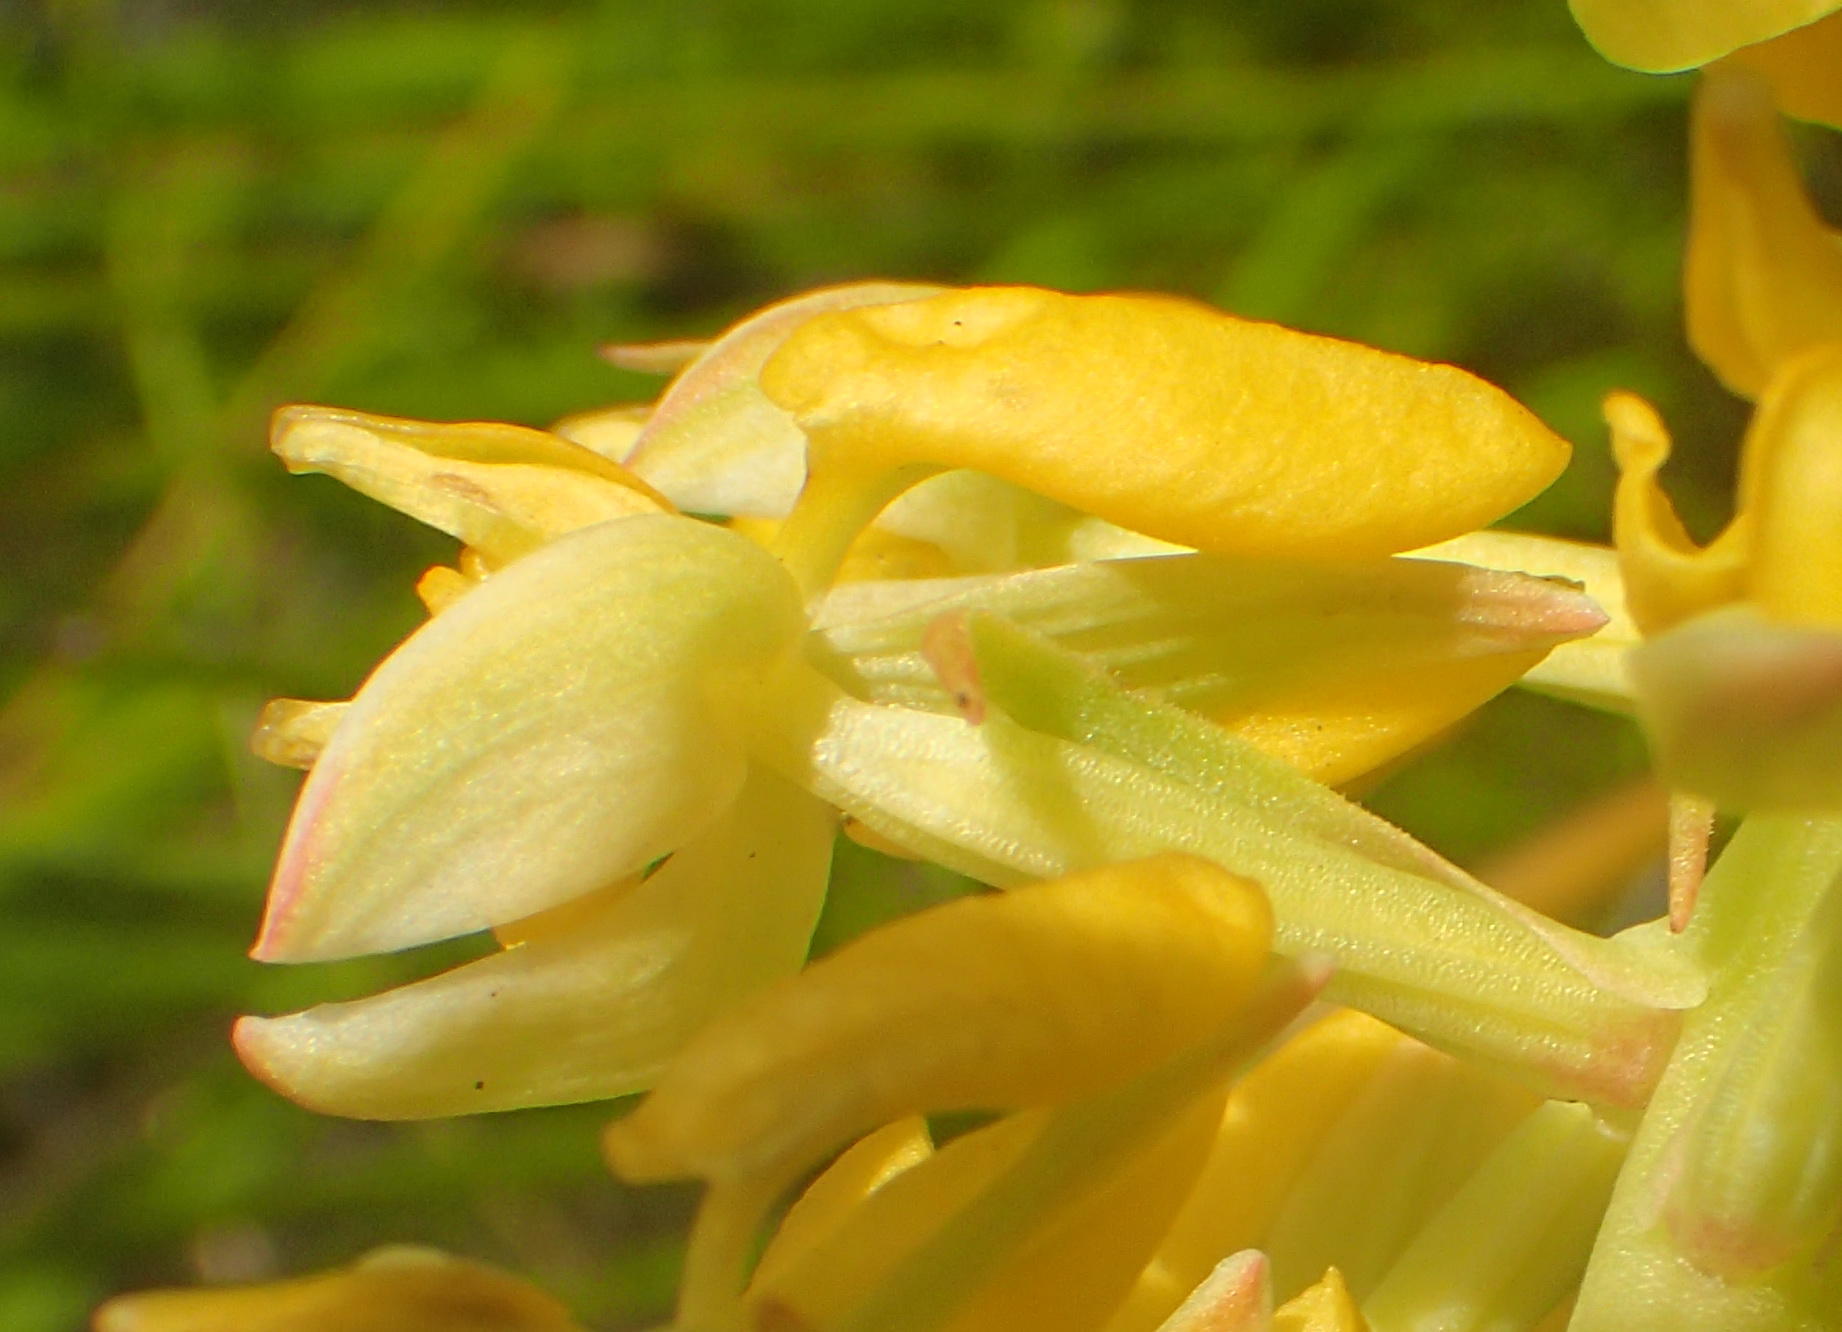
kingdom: Plantae
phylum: Tracheophyta
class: Liliopsida
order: Asparagales
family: Orchidaceae
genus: Ceratandra
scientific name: Ceratandra atrata
